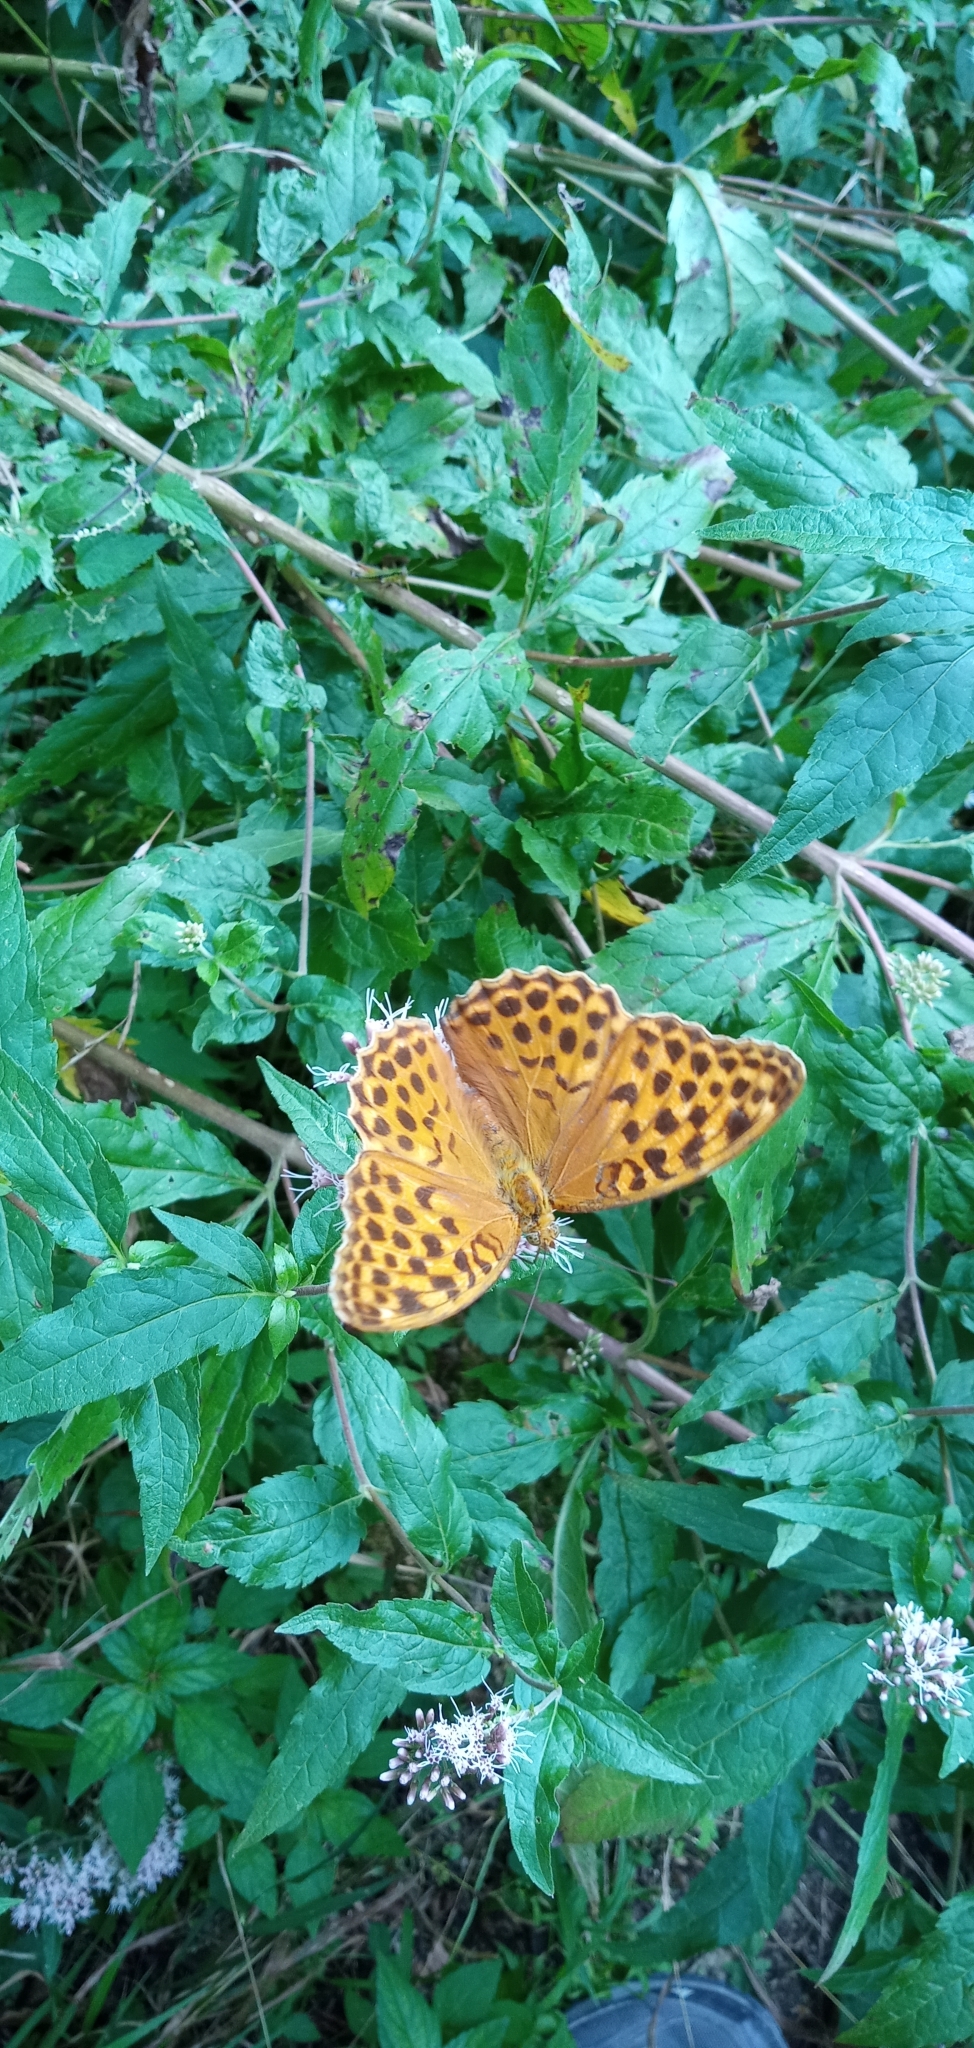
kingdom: Animalia
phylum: Arthropoda
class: Insecta
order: Lepidoptera
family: Nymphalidae
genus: Argynnis
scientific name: Argynnis paphia
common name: Silver-washed fritillary
